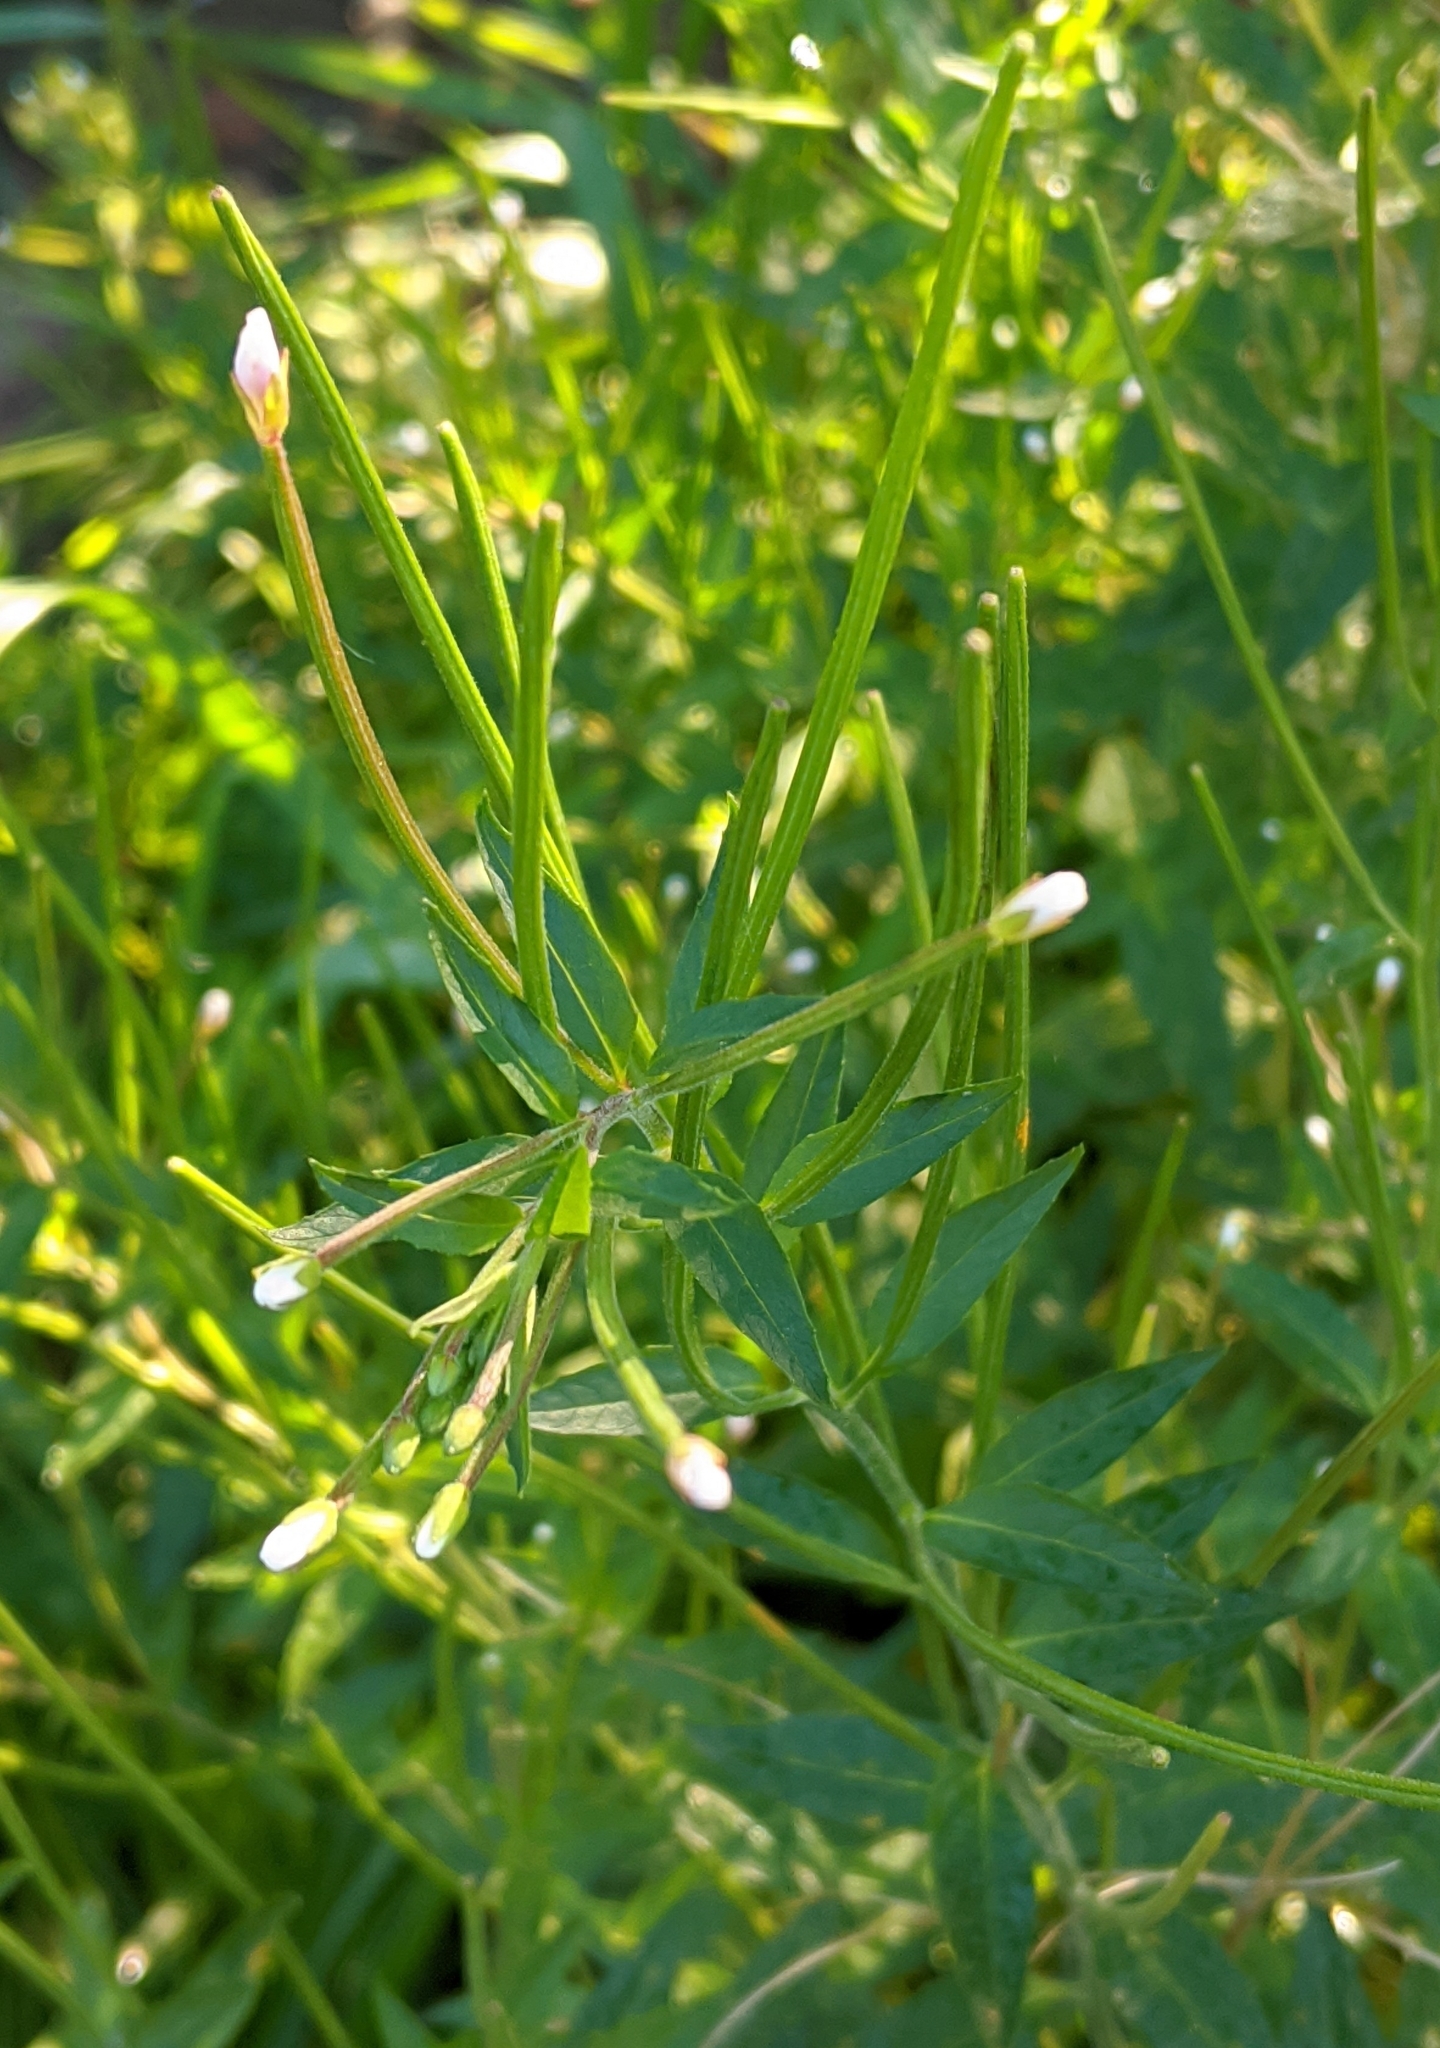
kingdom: Plantae
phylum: Tracheophyta
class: Magnoliopsida
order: Myrtales
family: Onagraceae
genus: Epilobium
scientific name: Epilobium pseudorubescens
